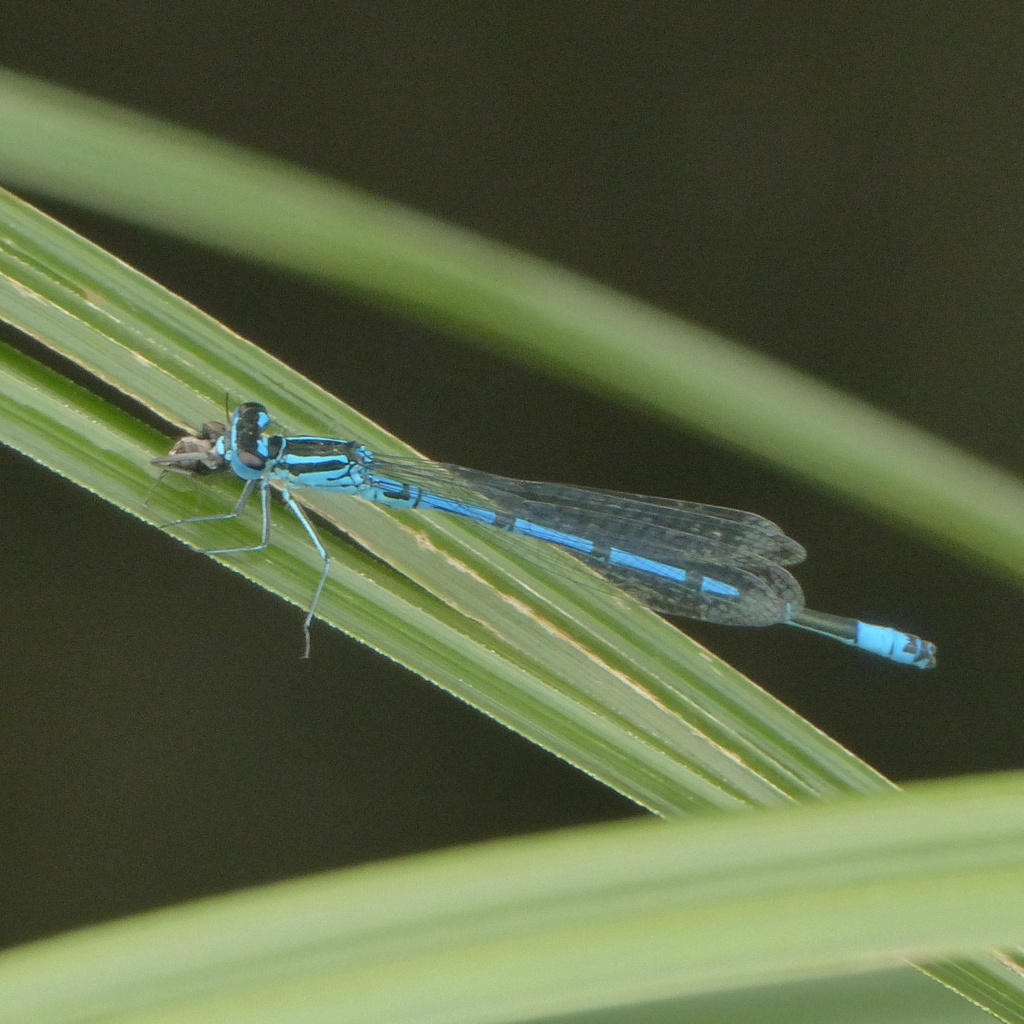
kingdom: Animalia
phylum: Arthropoda
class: Insecta
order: Odonata
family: Coenagrionidae
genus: Coenagrion
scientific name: Coenagrion puella
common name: Azure damselfly
